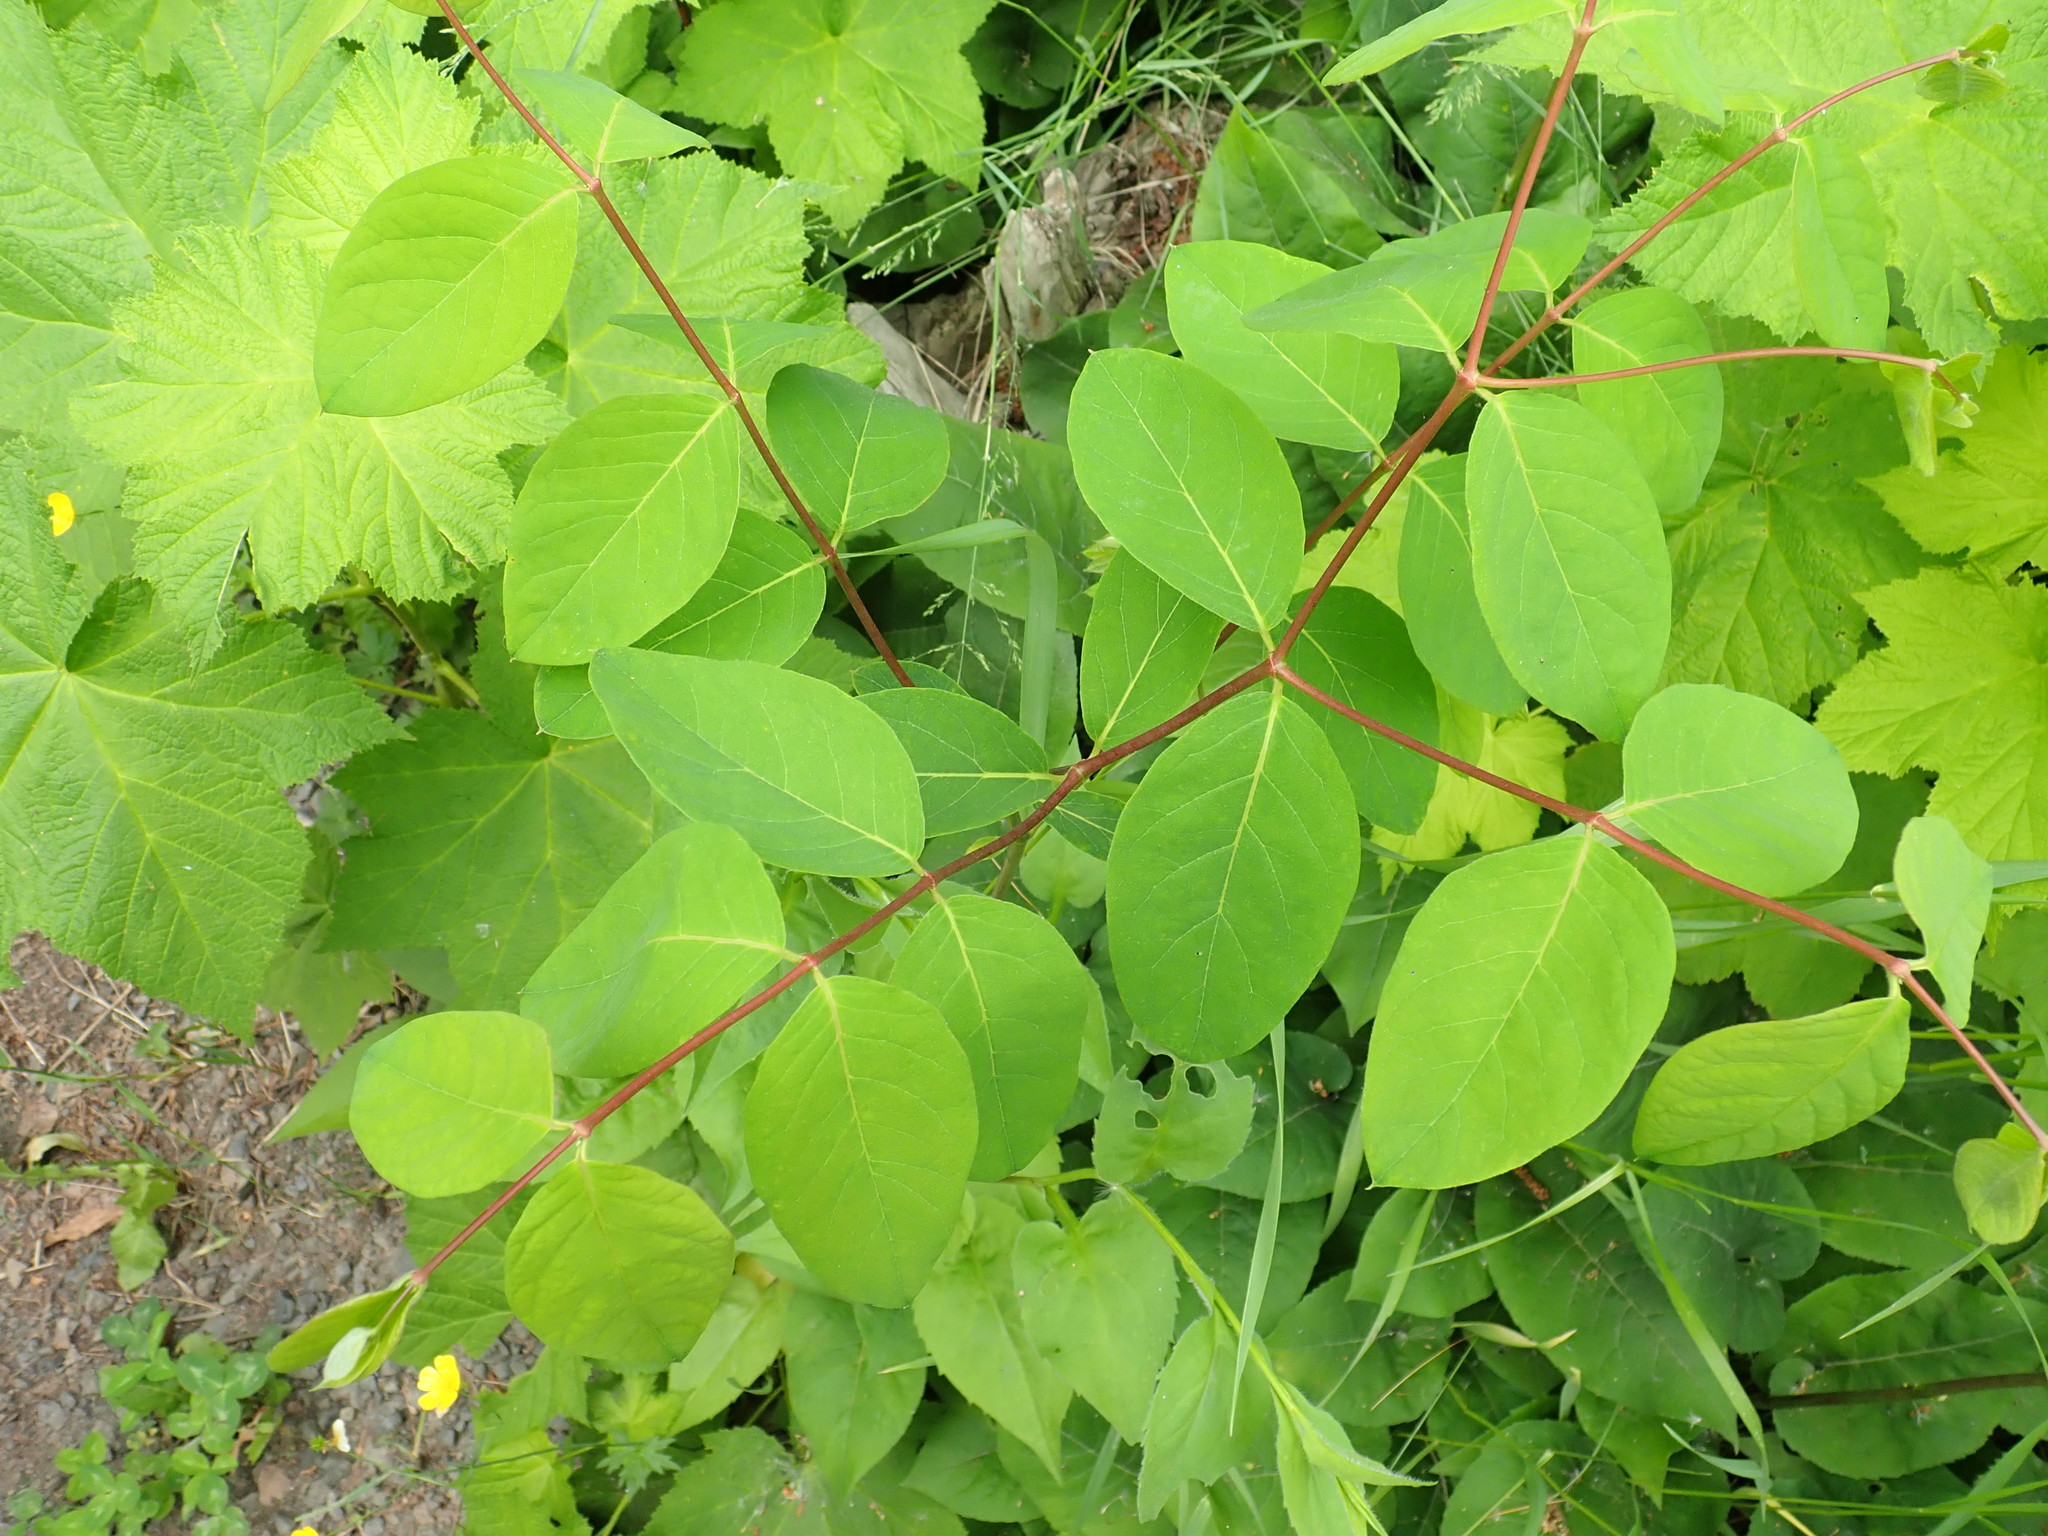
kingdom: Plantae
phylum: Tracheophyta
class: Magnoliopsida
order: Gentianales
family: Apocynaceae
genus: Apocynum
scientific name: Apocynum androsaemifolium
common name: Spreading dogbane
